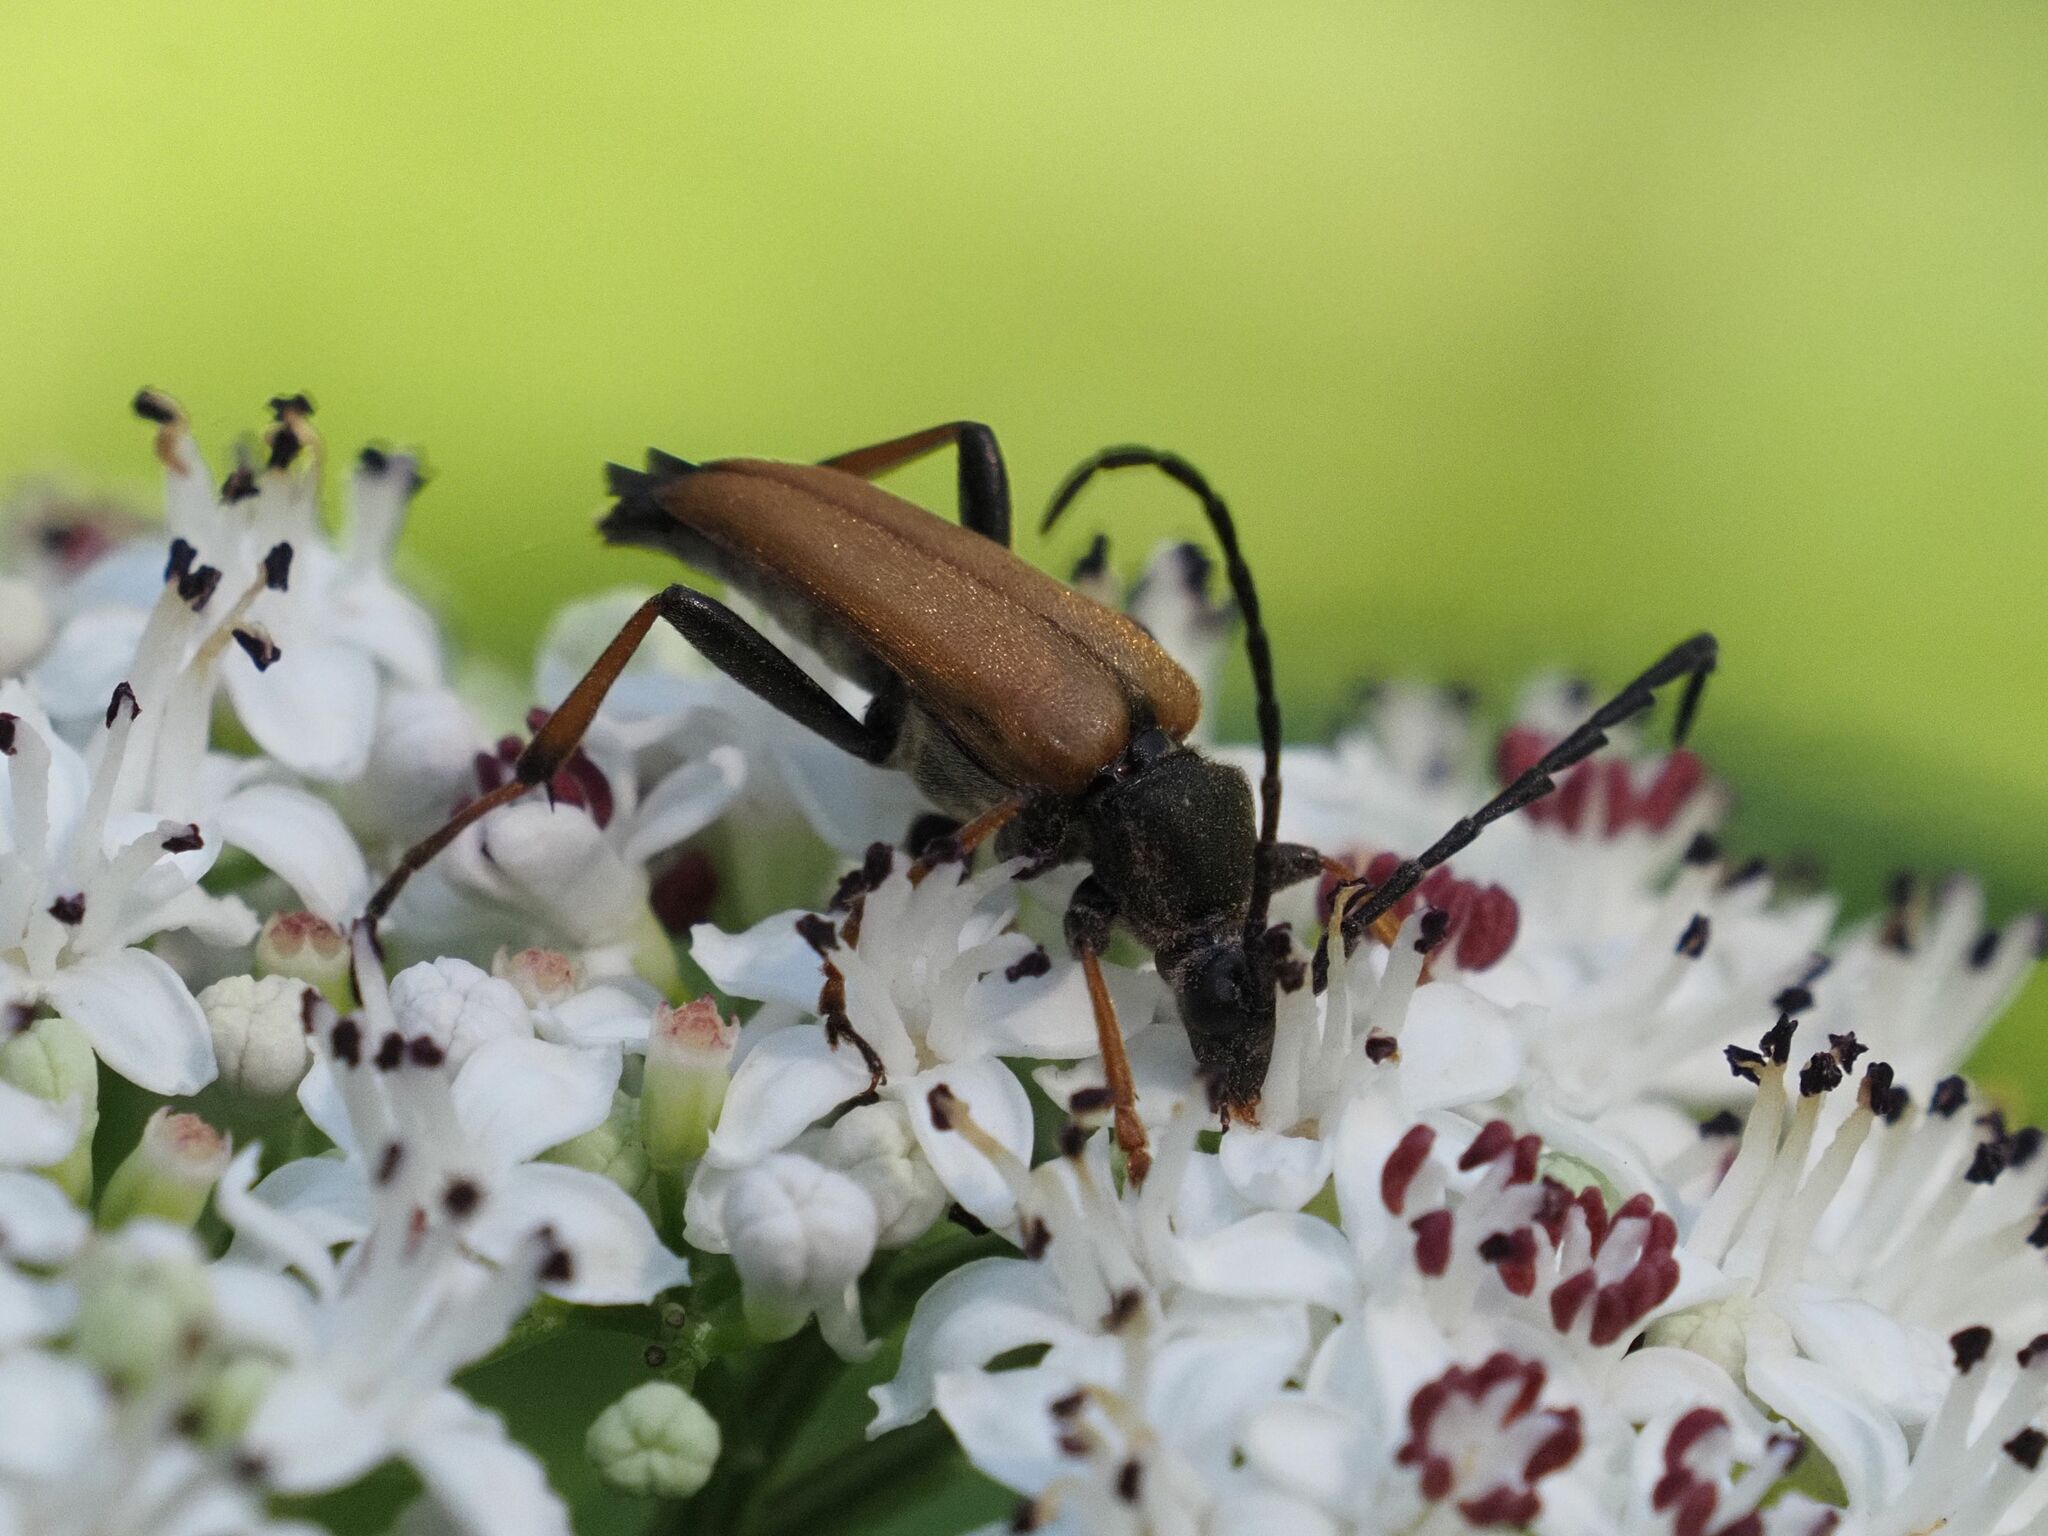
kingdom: Animalia
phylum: Arthropoda
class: Insecta
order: Coleoptera
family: Cerambycidae
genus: Stictoleptura
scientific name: Stictoleptura rubra
